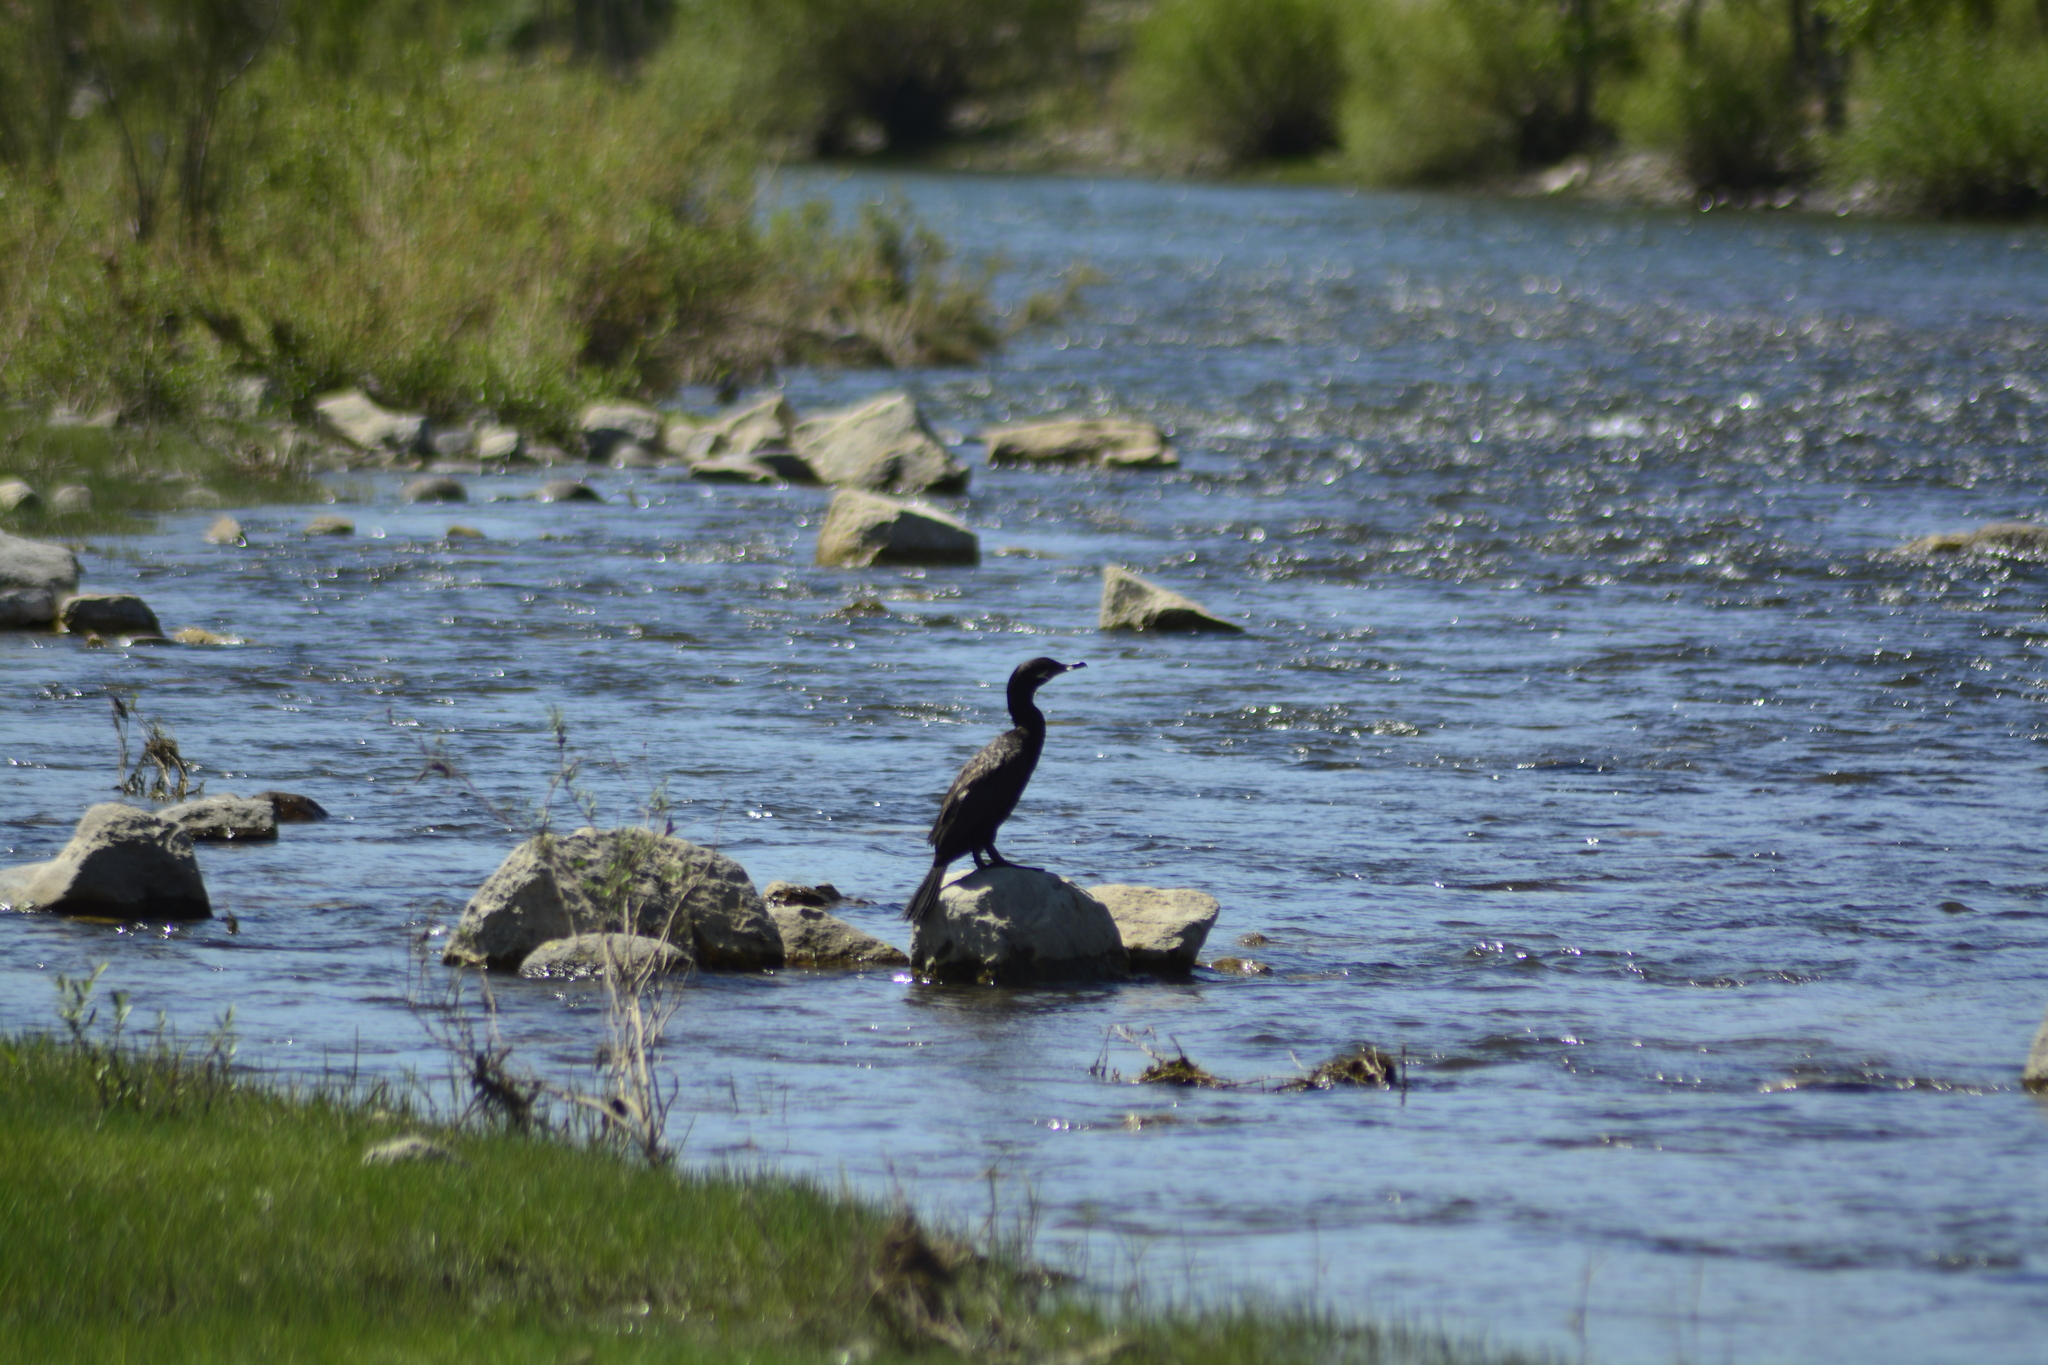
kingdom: Animalia
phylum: Chordata
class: Aves
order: Suliformes
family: Phalacrocoracidae
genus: Phalacrocorax
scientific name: Phalacrocorax brasilianus
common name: Neotropic cormorant
